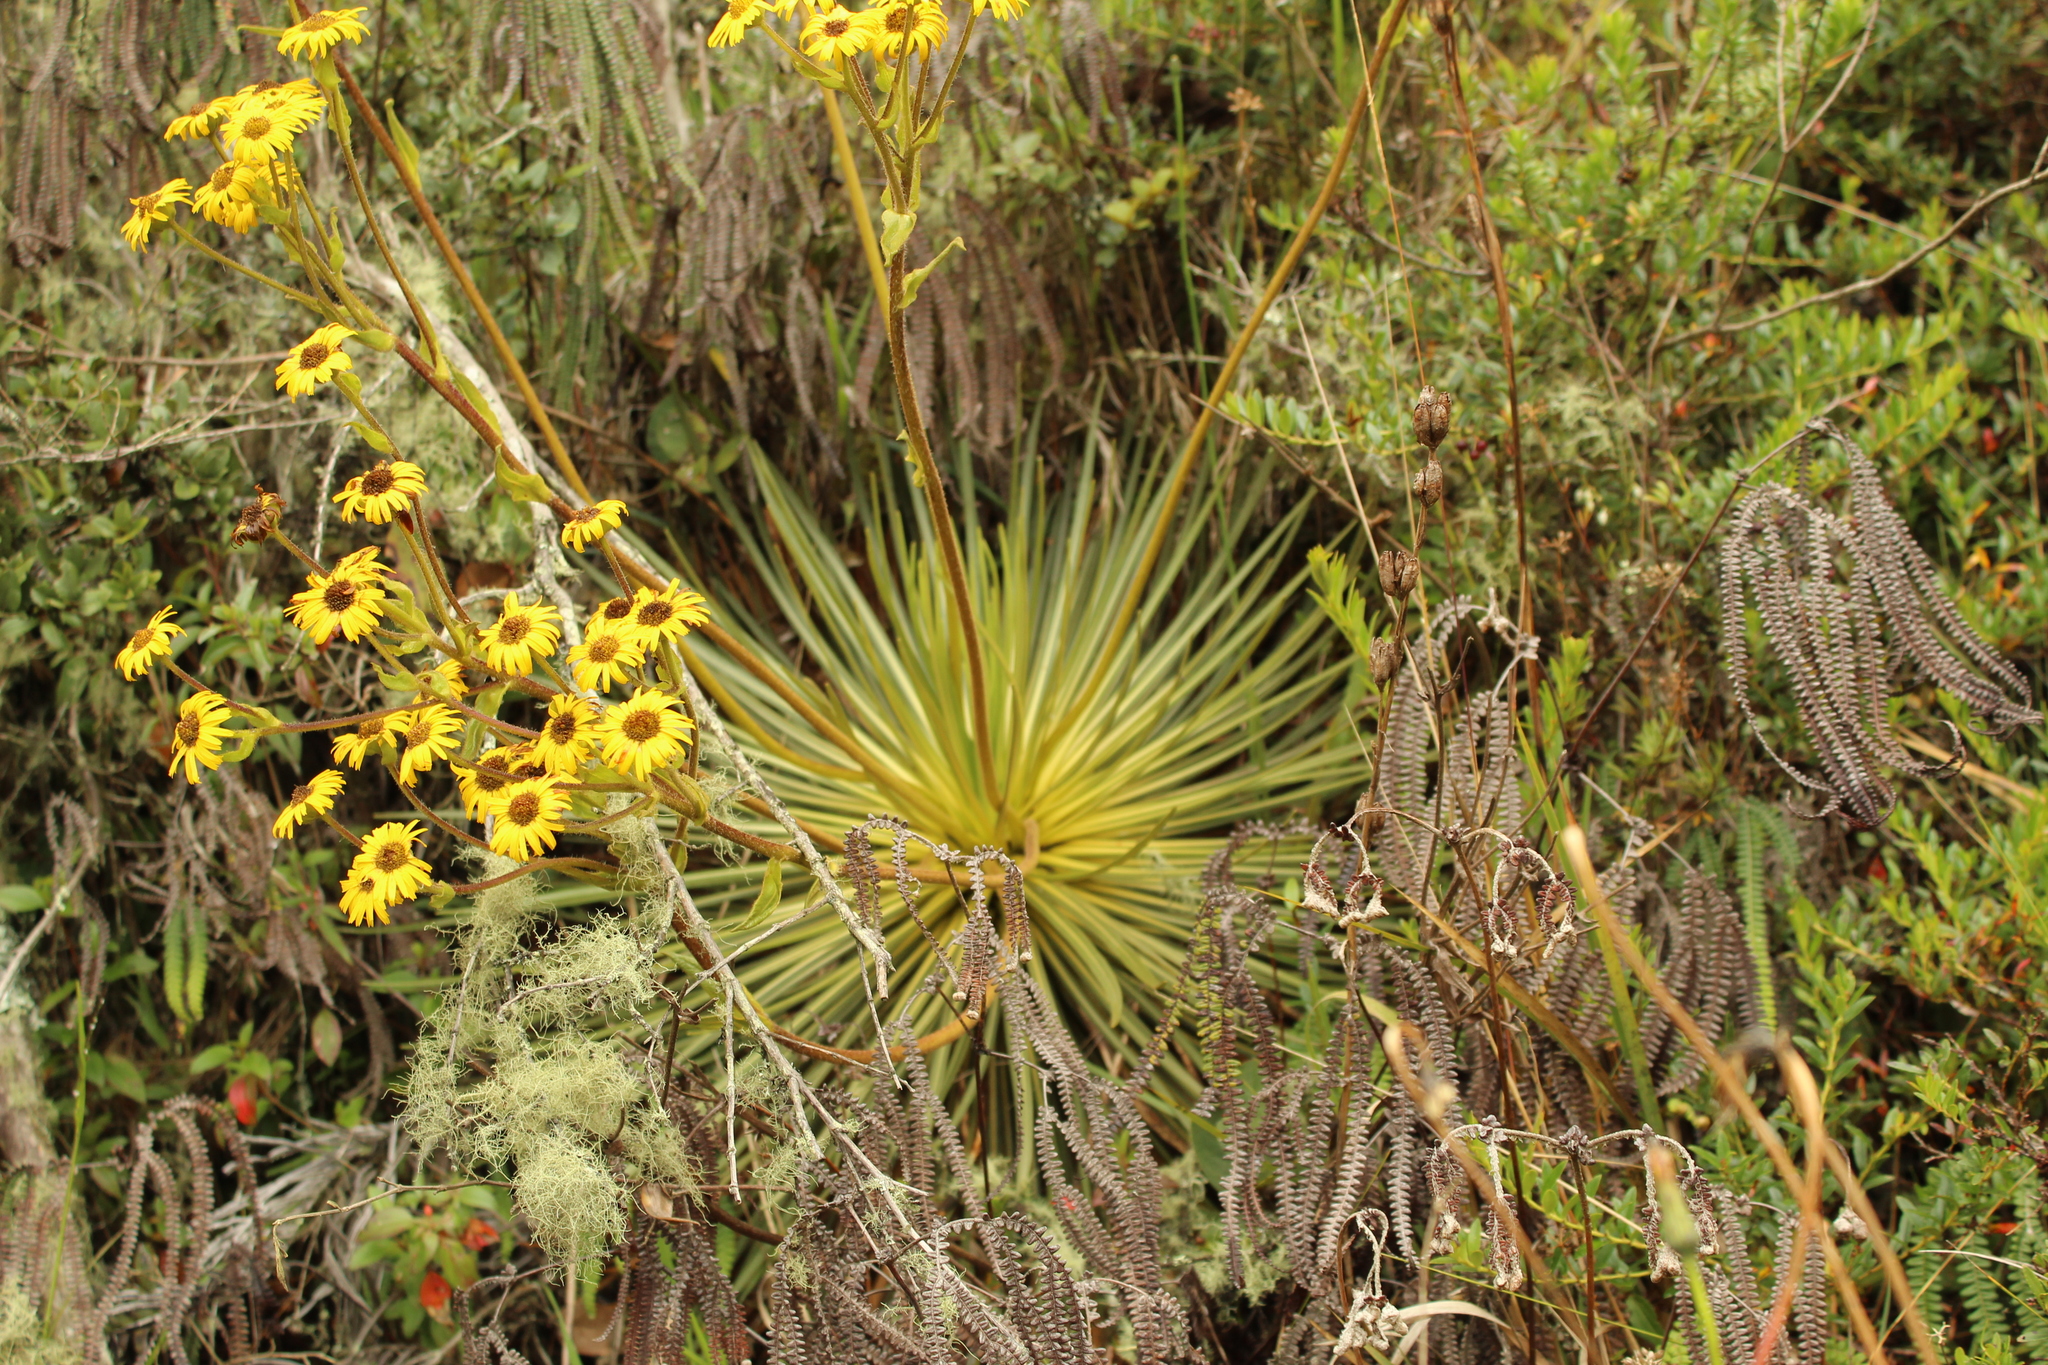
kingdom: Plantae
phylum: Tracheophyta
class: Magnoliopsida
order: Asterales
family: Asteraceae
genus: Espeletia
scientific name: Espeletia glandulosa
